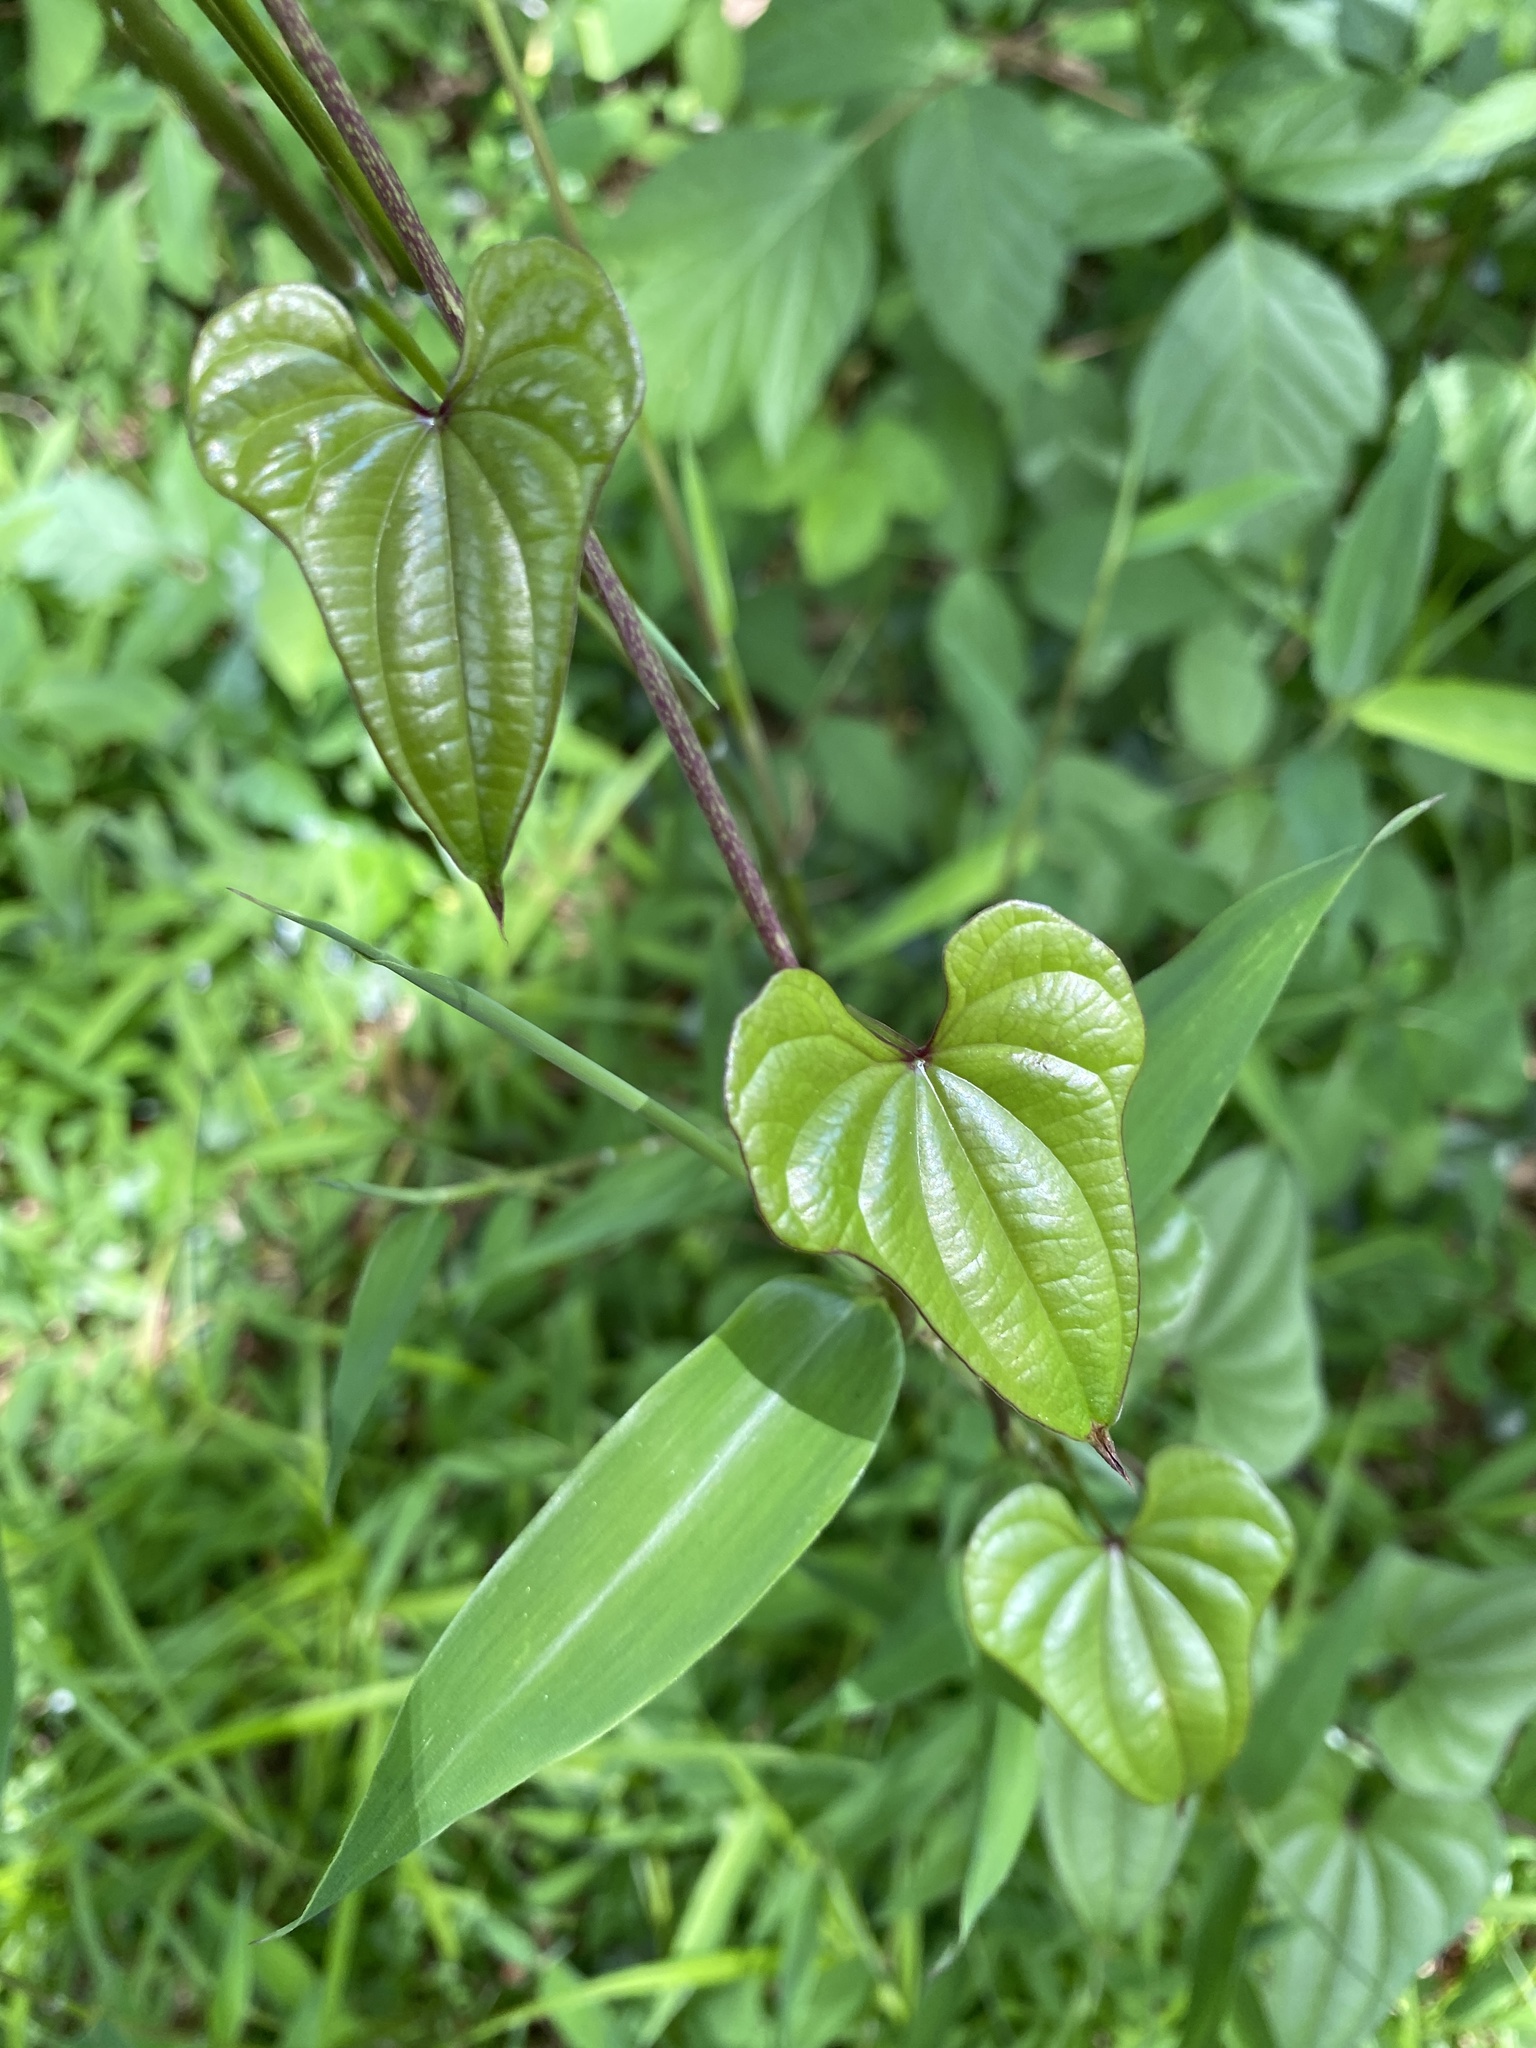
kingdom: Plantae
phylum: Tracheophyta
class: Liliopsida
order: Dioscoreales
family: Dioscoreaceae
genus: Dioscorea
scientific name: Dioscorea polystachya
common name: Chinese yam
